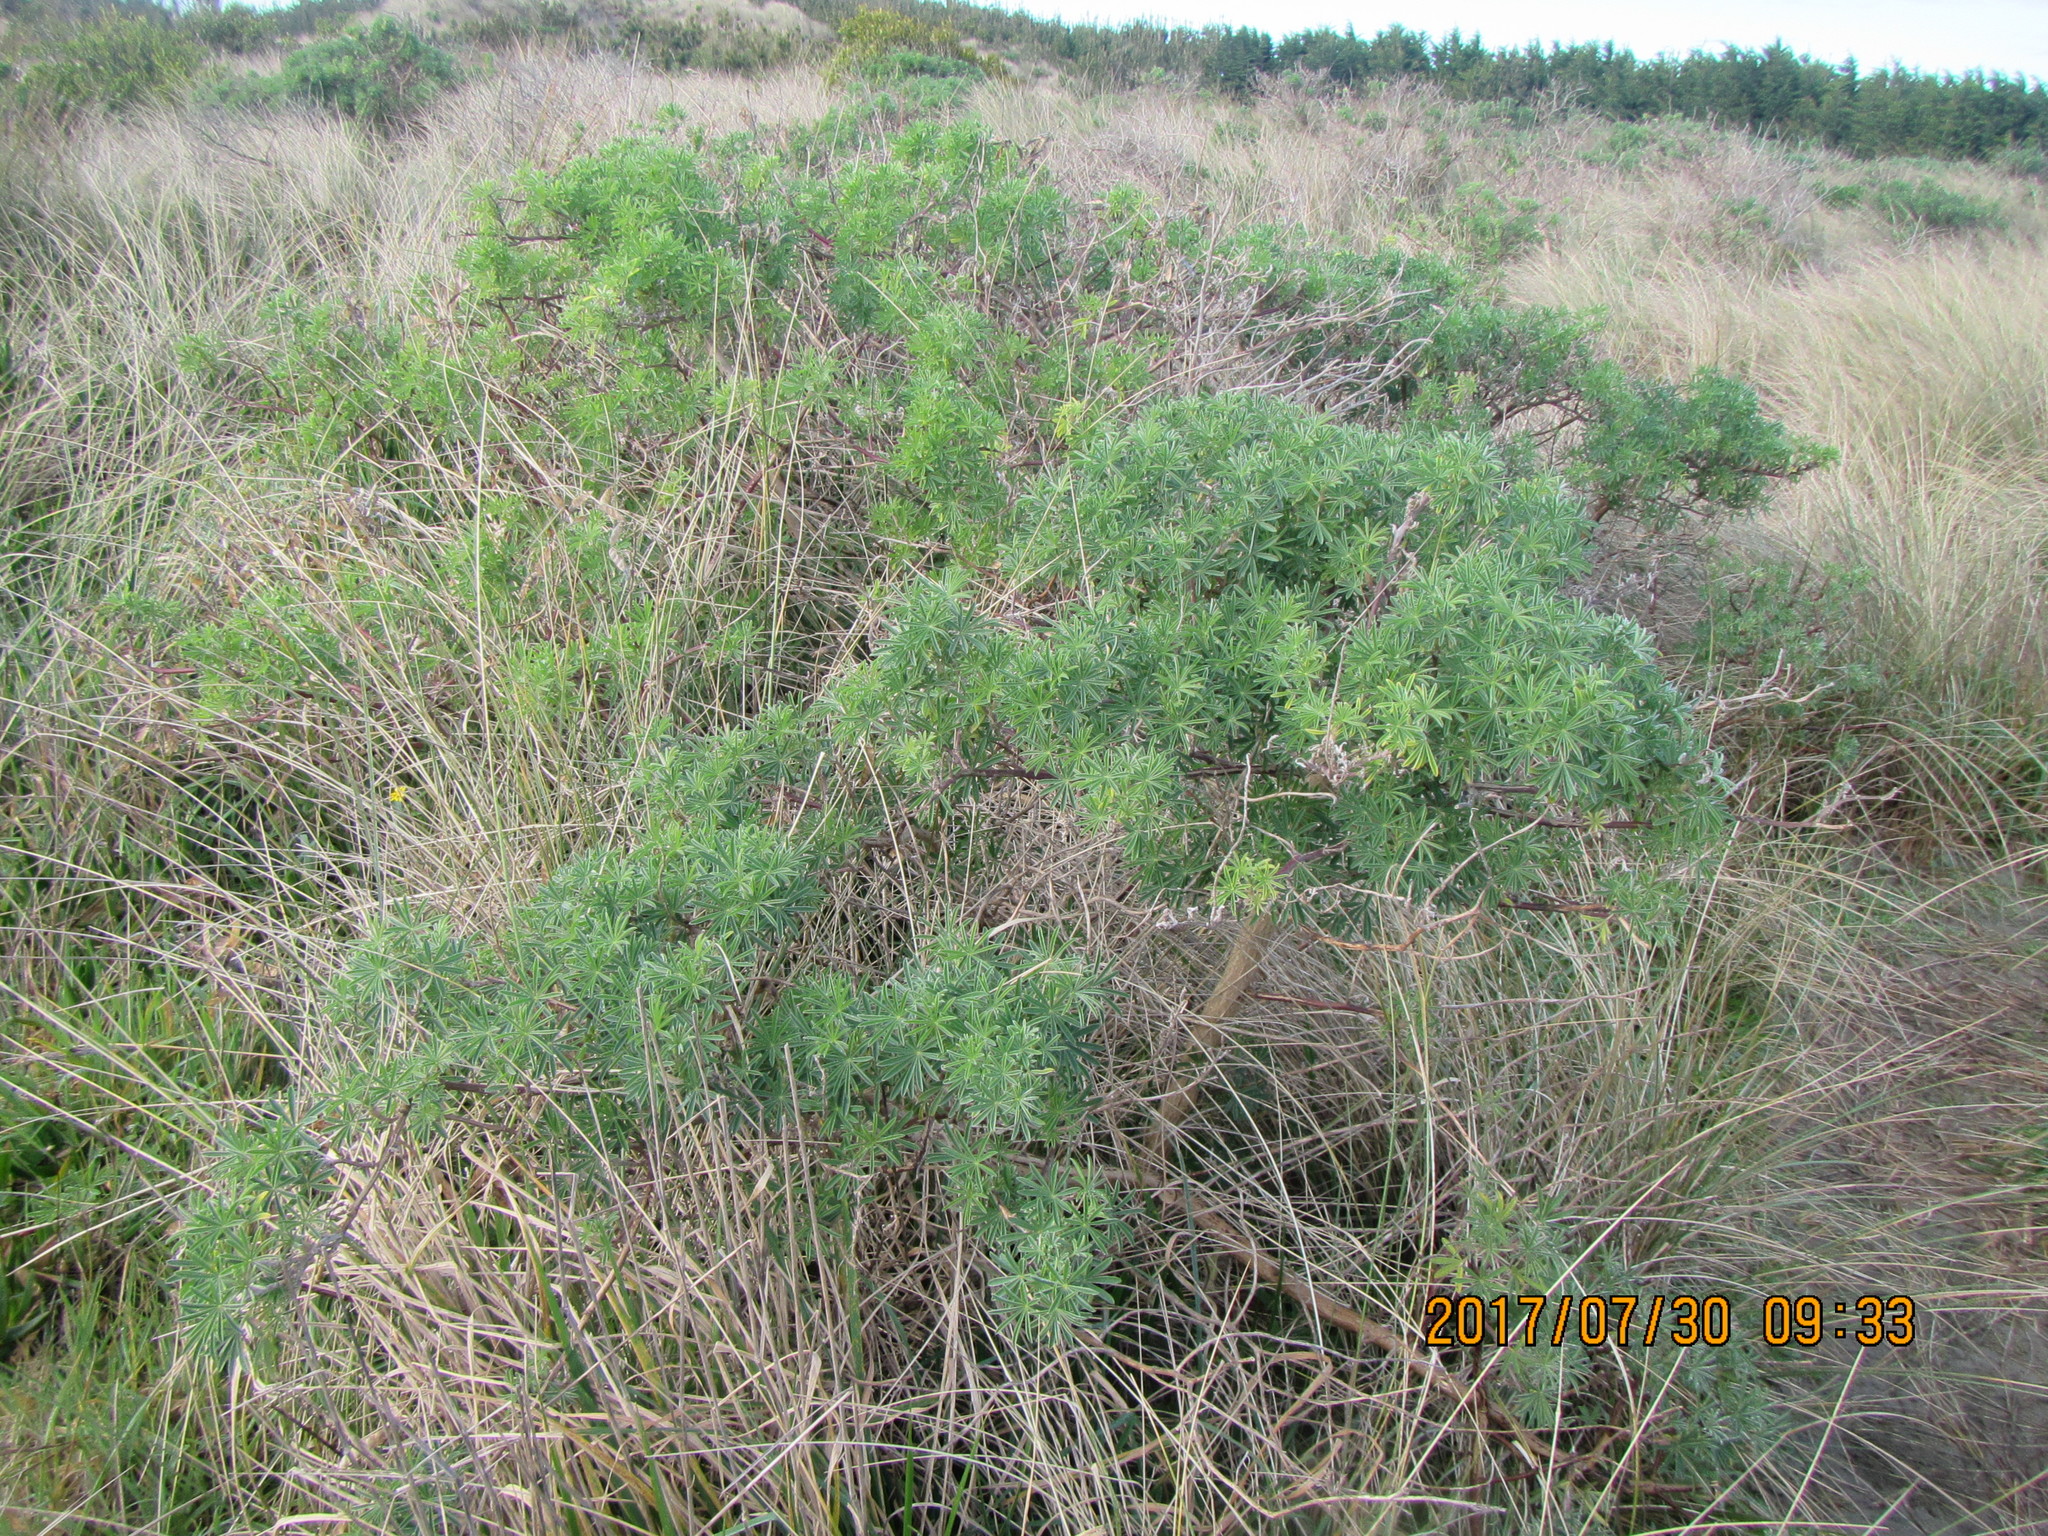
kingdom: Plantae
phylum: Tracheophyta
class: Magnoliopsida
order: Fabales
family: Fabaceae
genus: Lupinus
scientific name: Lupinus arboreus
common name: Yellow bush lupine
